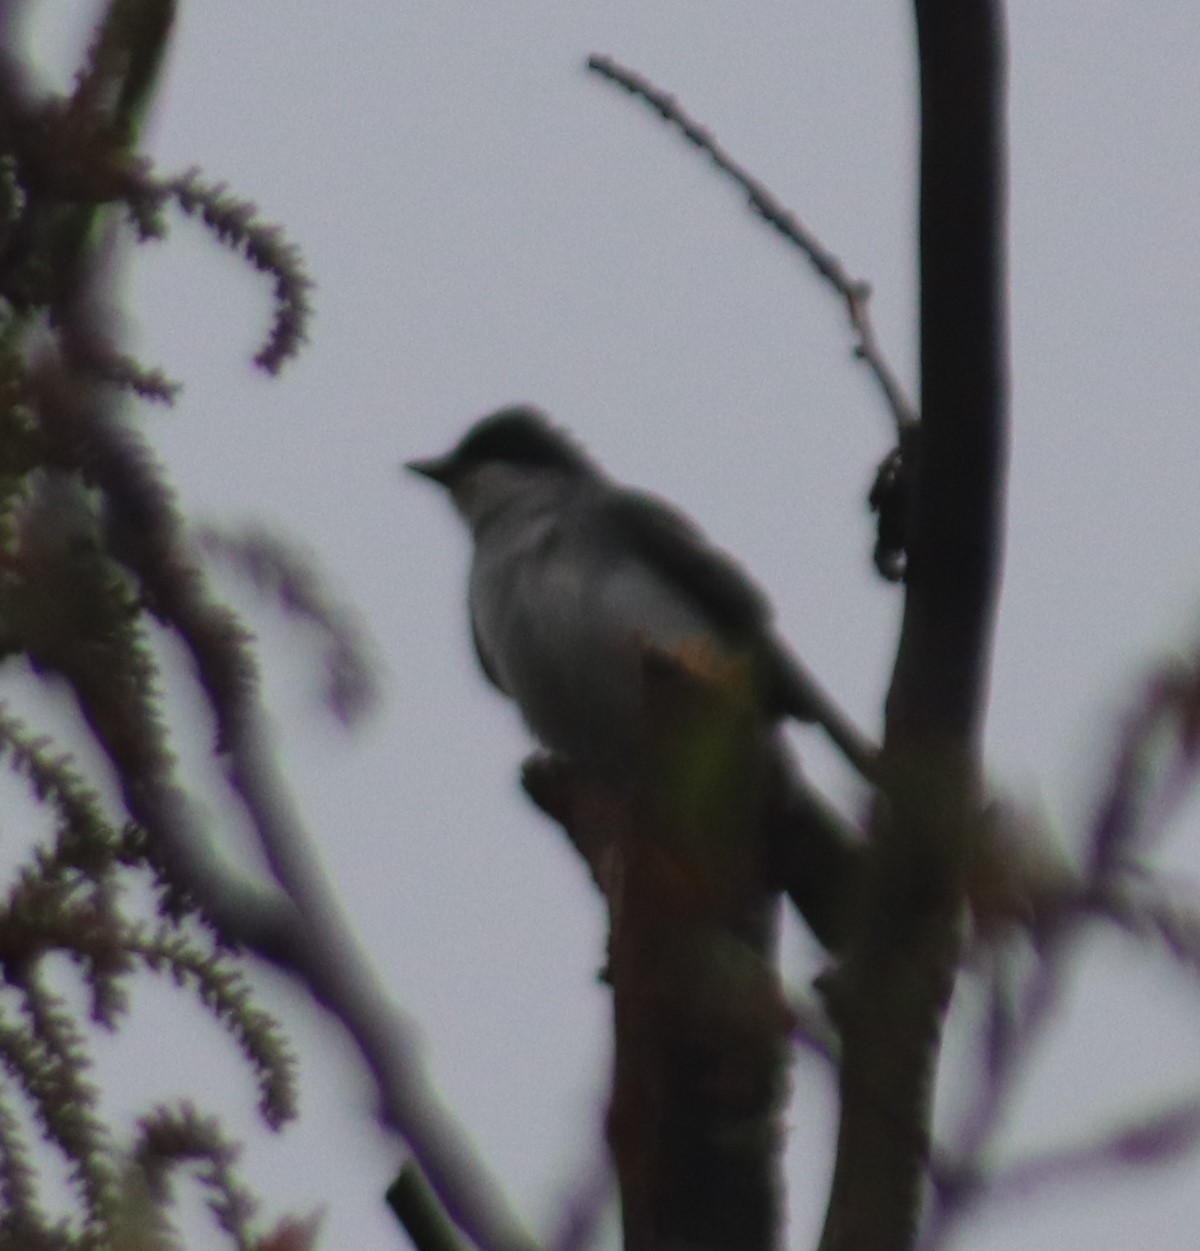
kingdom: Animalia
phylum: Chordata
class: Aves
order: Passeriformes
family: Tyrannidae
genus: Tyrannus
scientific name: Tyrannus tyrannus
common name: Eastern kingbird
